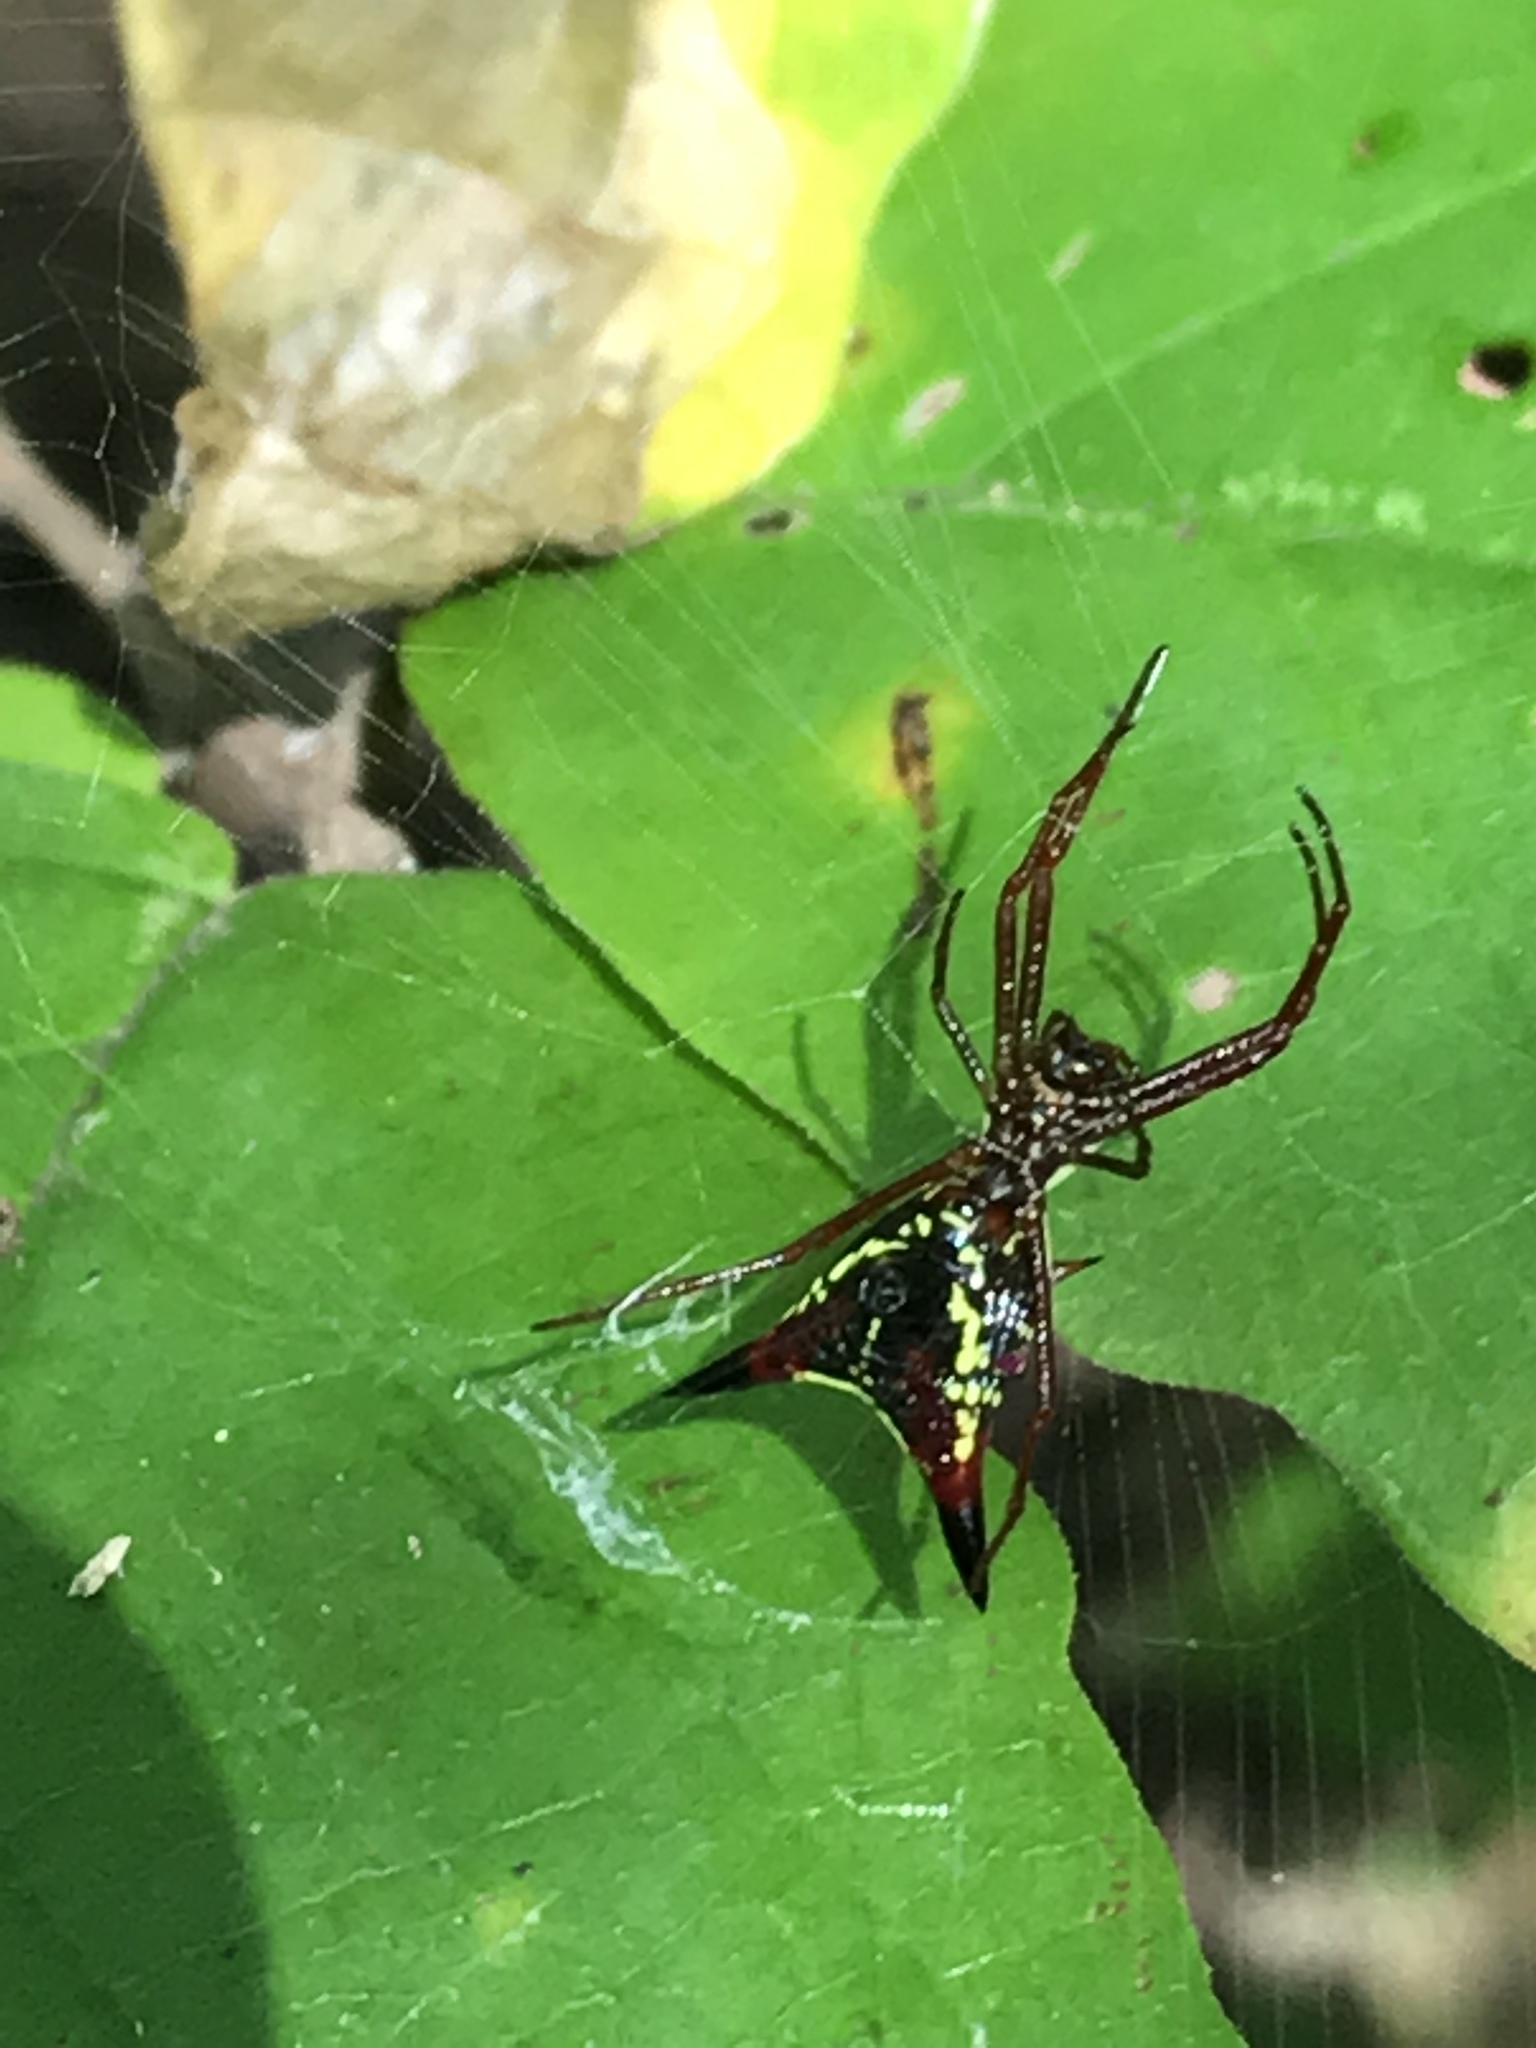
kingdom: Animalia
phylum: Arthropoda
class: Arachnida
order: Araneae
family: Araneidae
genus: Micrathena
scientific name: Micrathena sagittata
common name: Orb weavers
